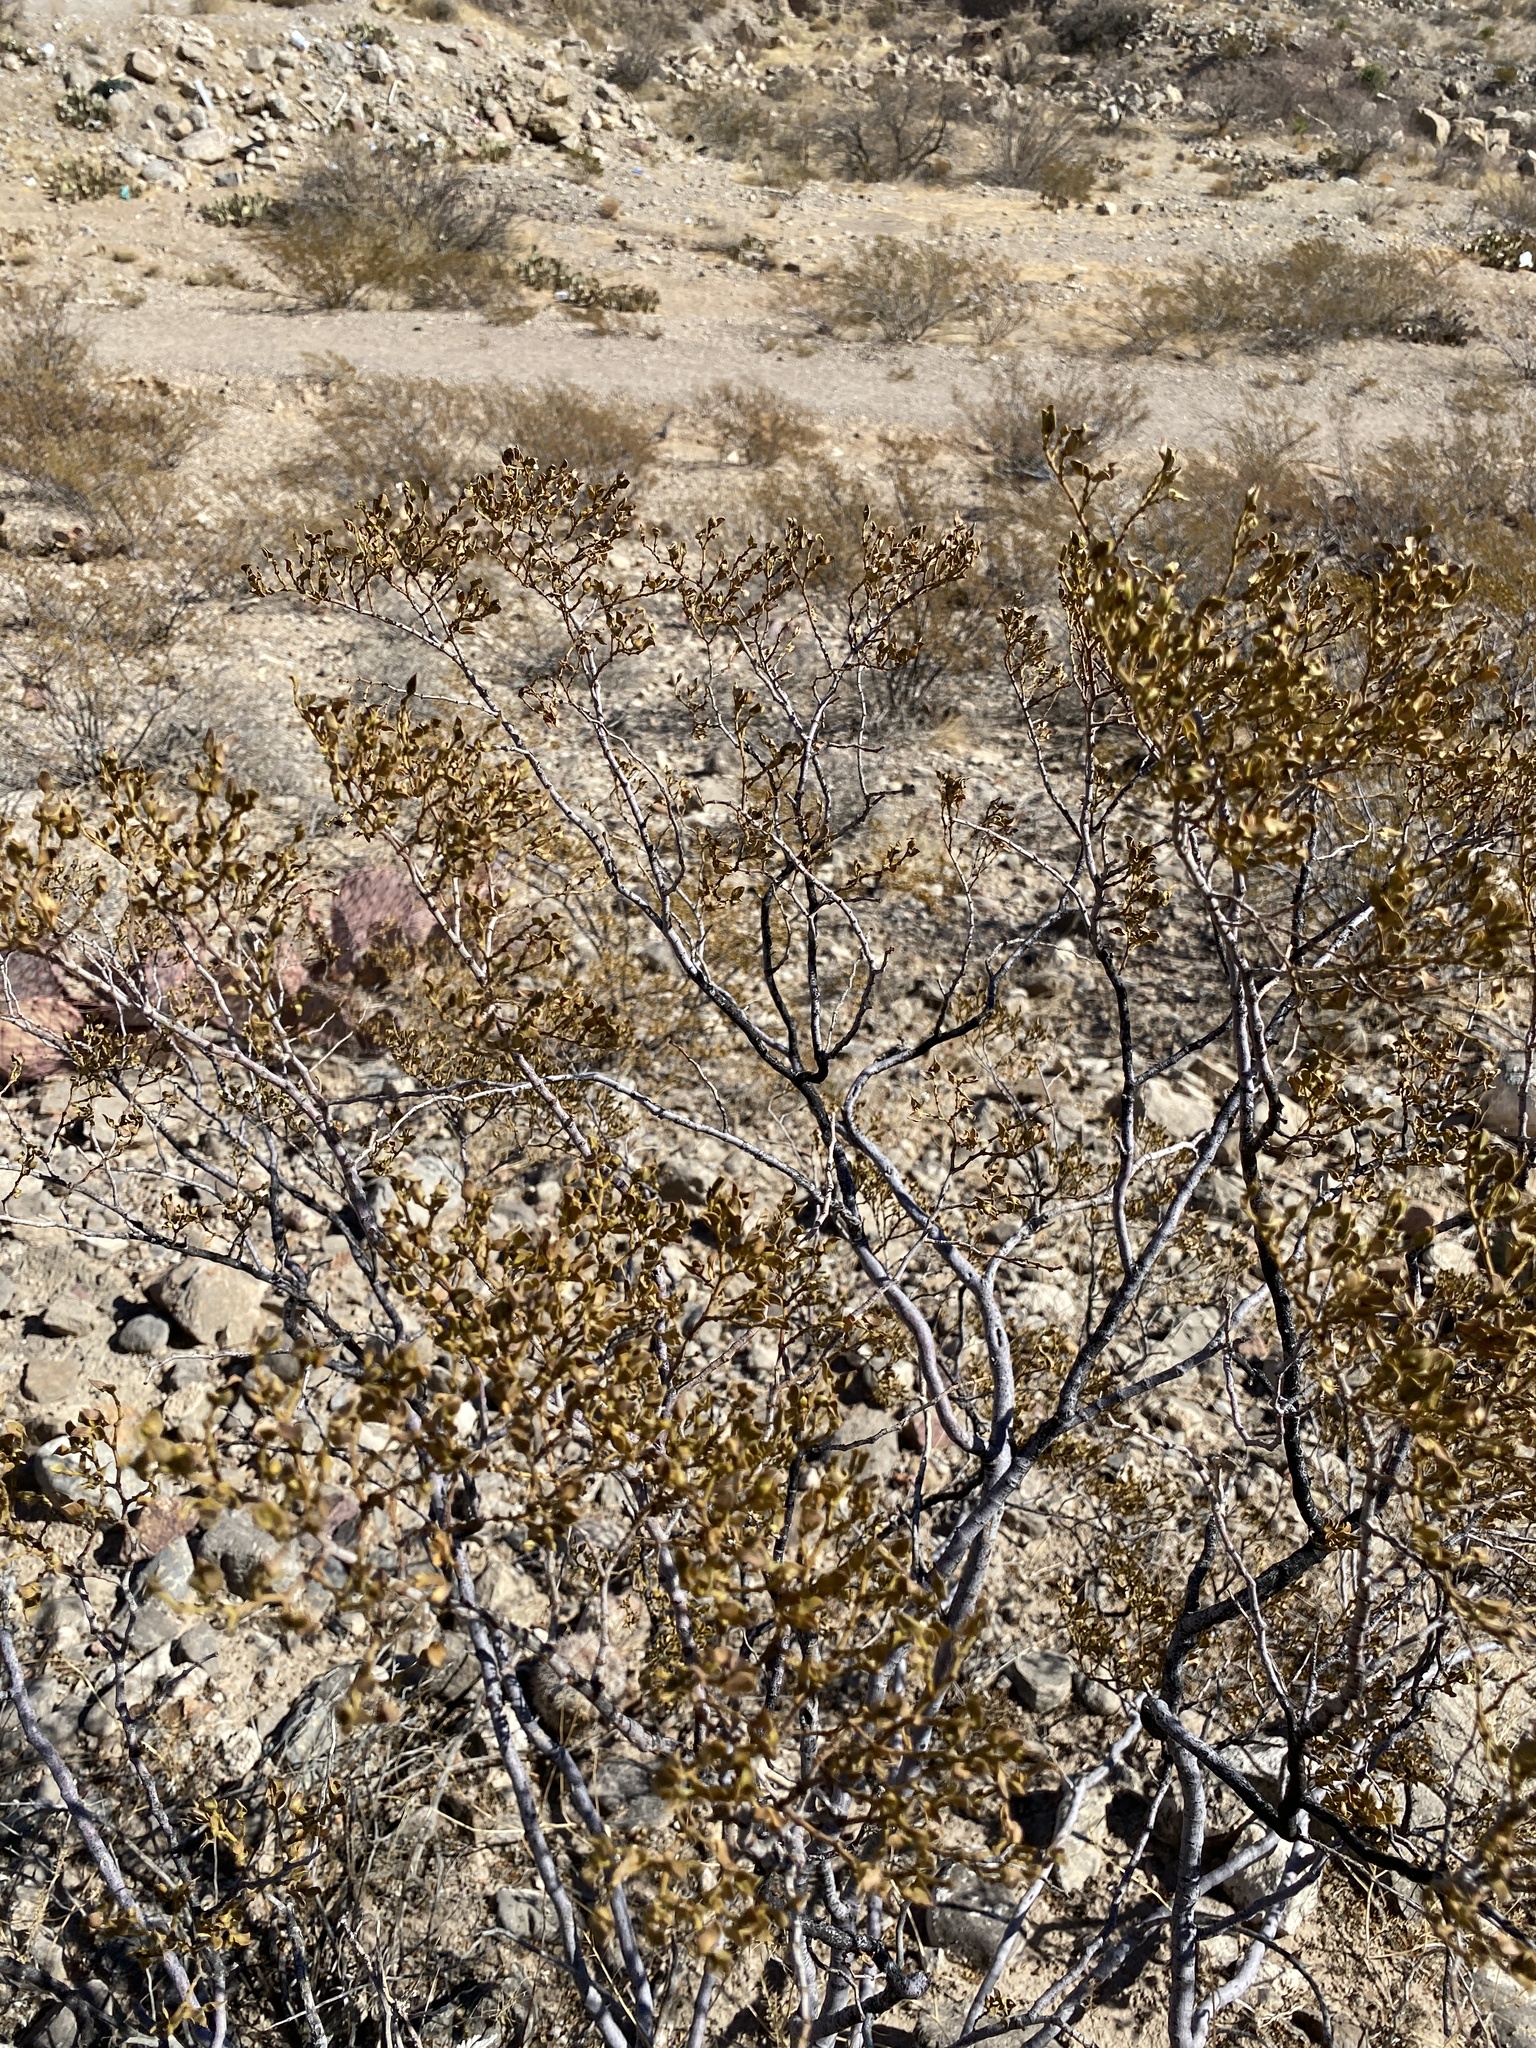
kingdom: Plantae
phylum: Tracheophyta
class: Magnoliopsida
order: Zygophyllales
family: Zygophyllaceae
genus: Larrea
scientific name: Larrea tridentata
